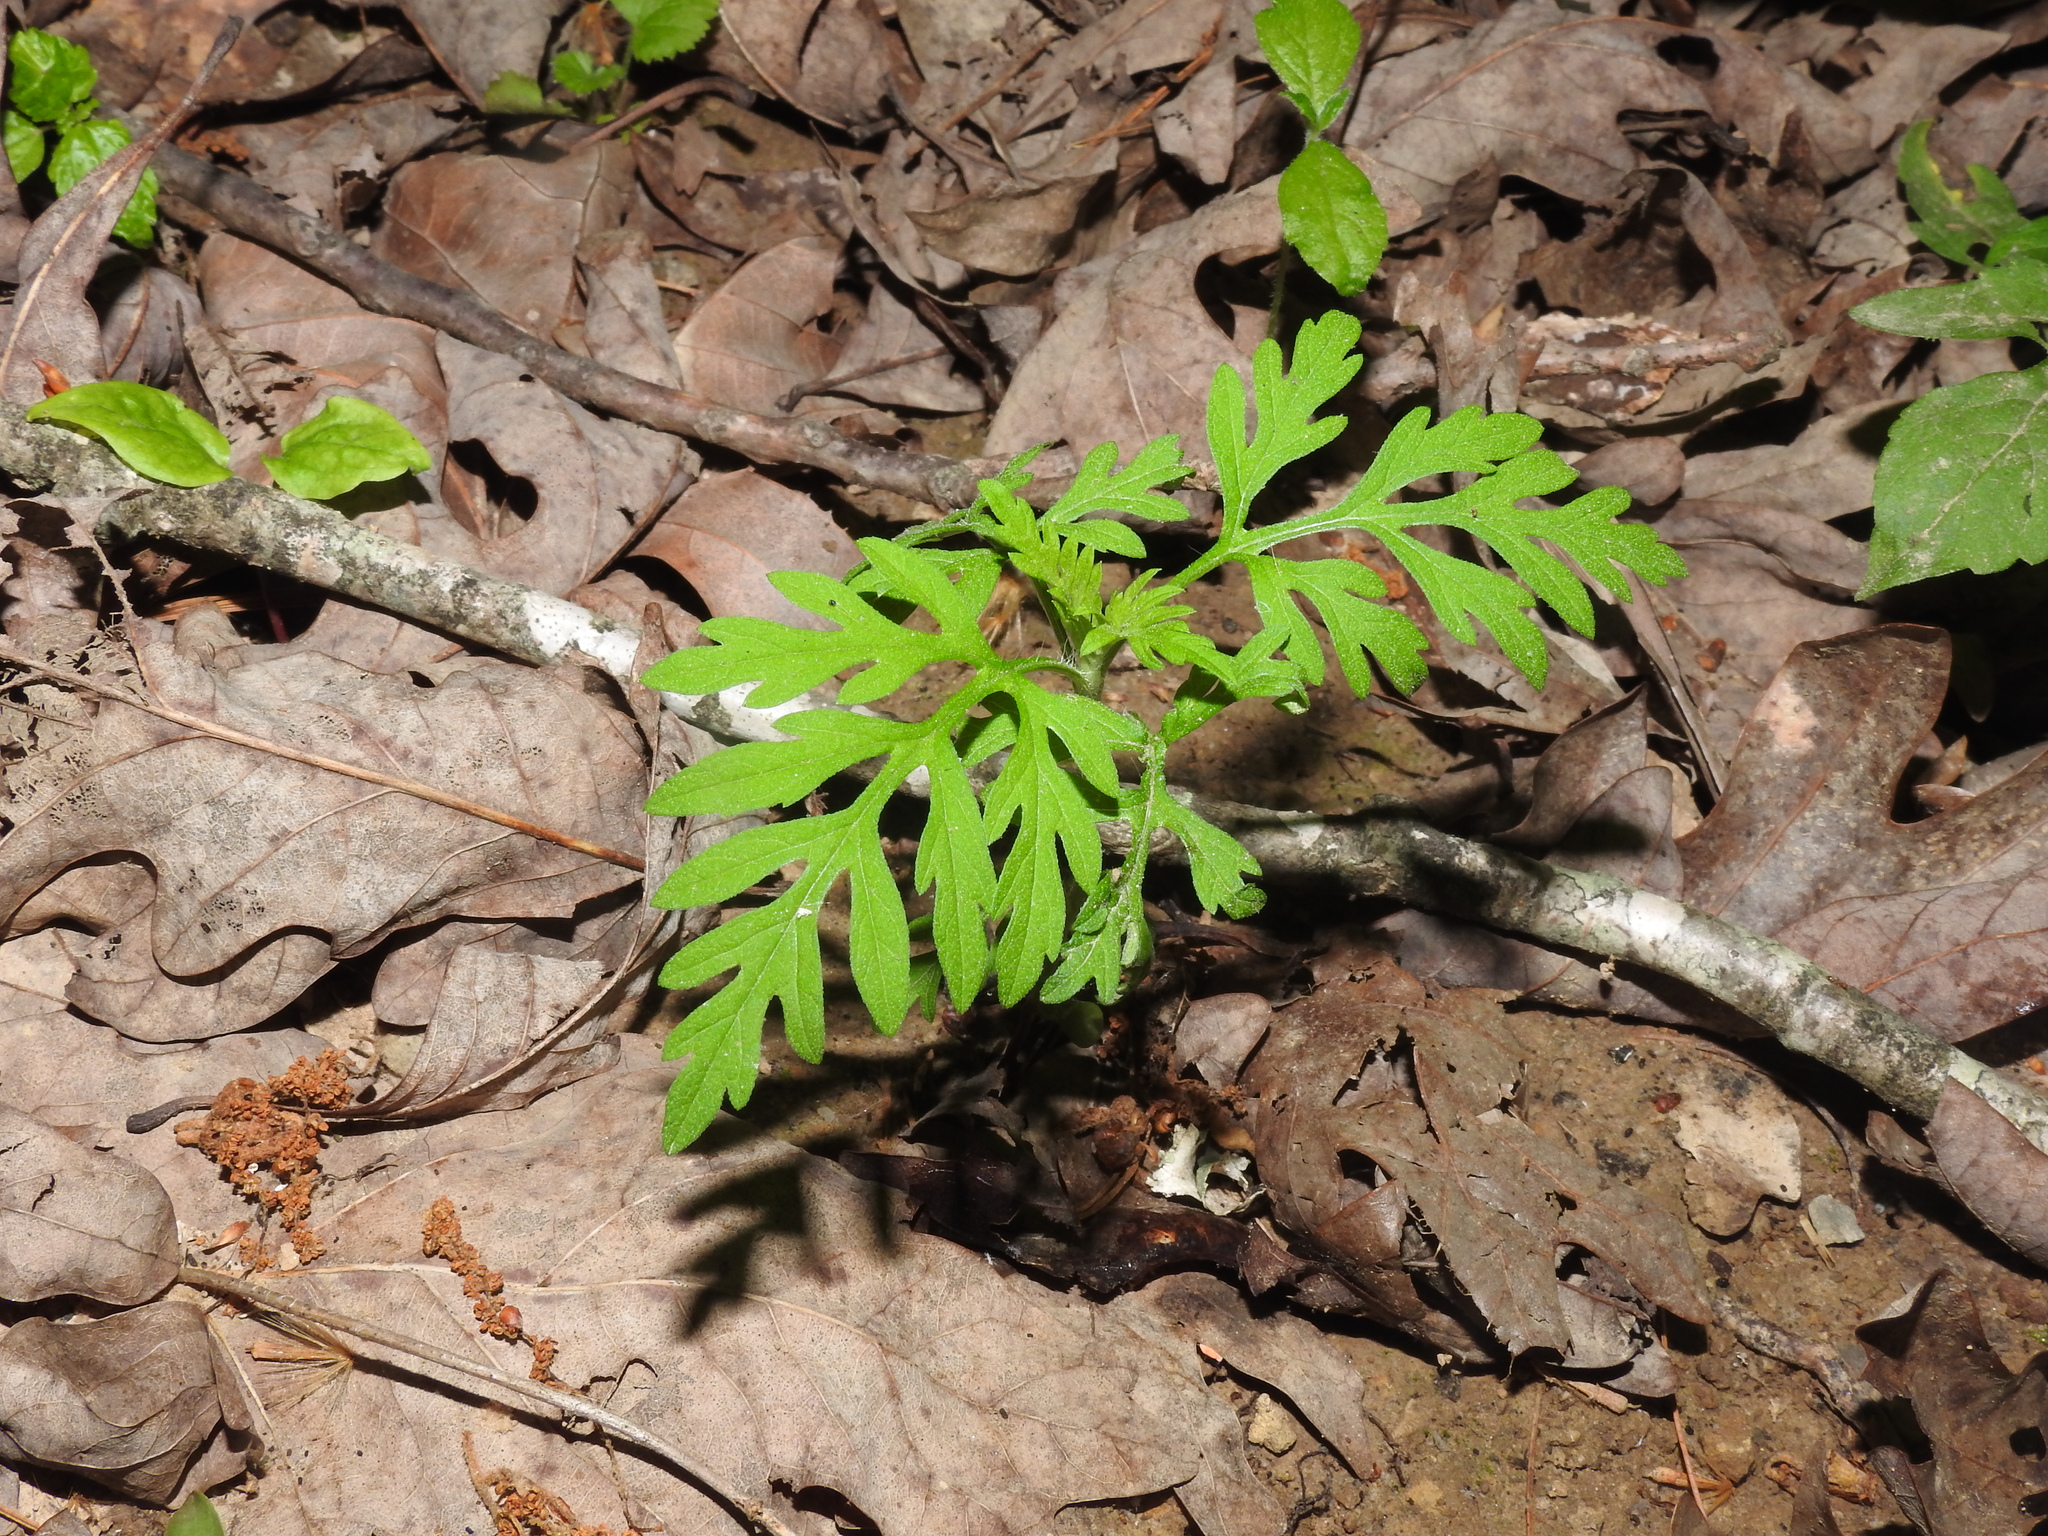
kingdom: Plantae
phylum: Tracheophyta
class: Magnoliopsida
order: Asterales
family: Asteraceae
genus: Ambrosia
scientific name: Ambrosia artemisiifolia
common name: Annual ragweed
